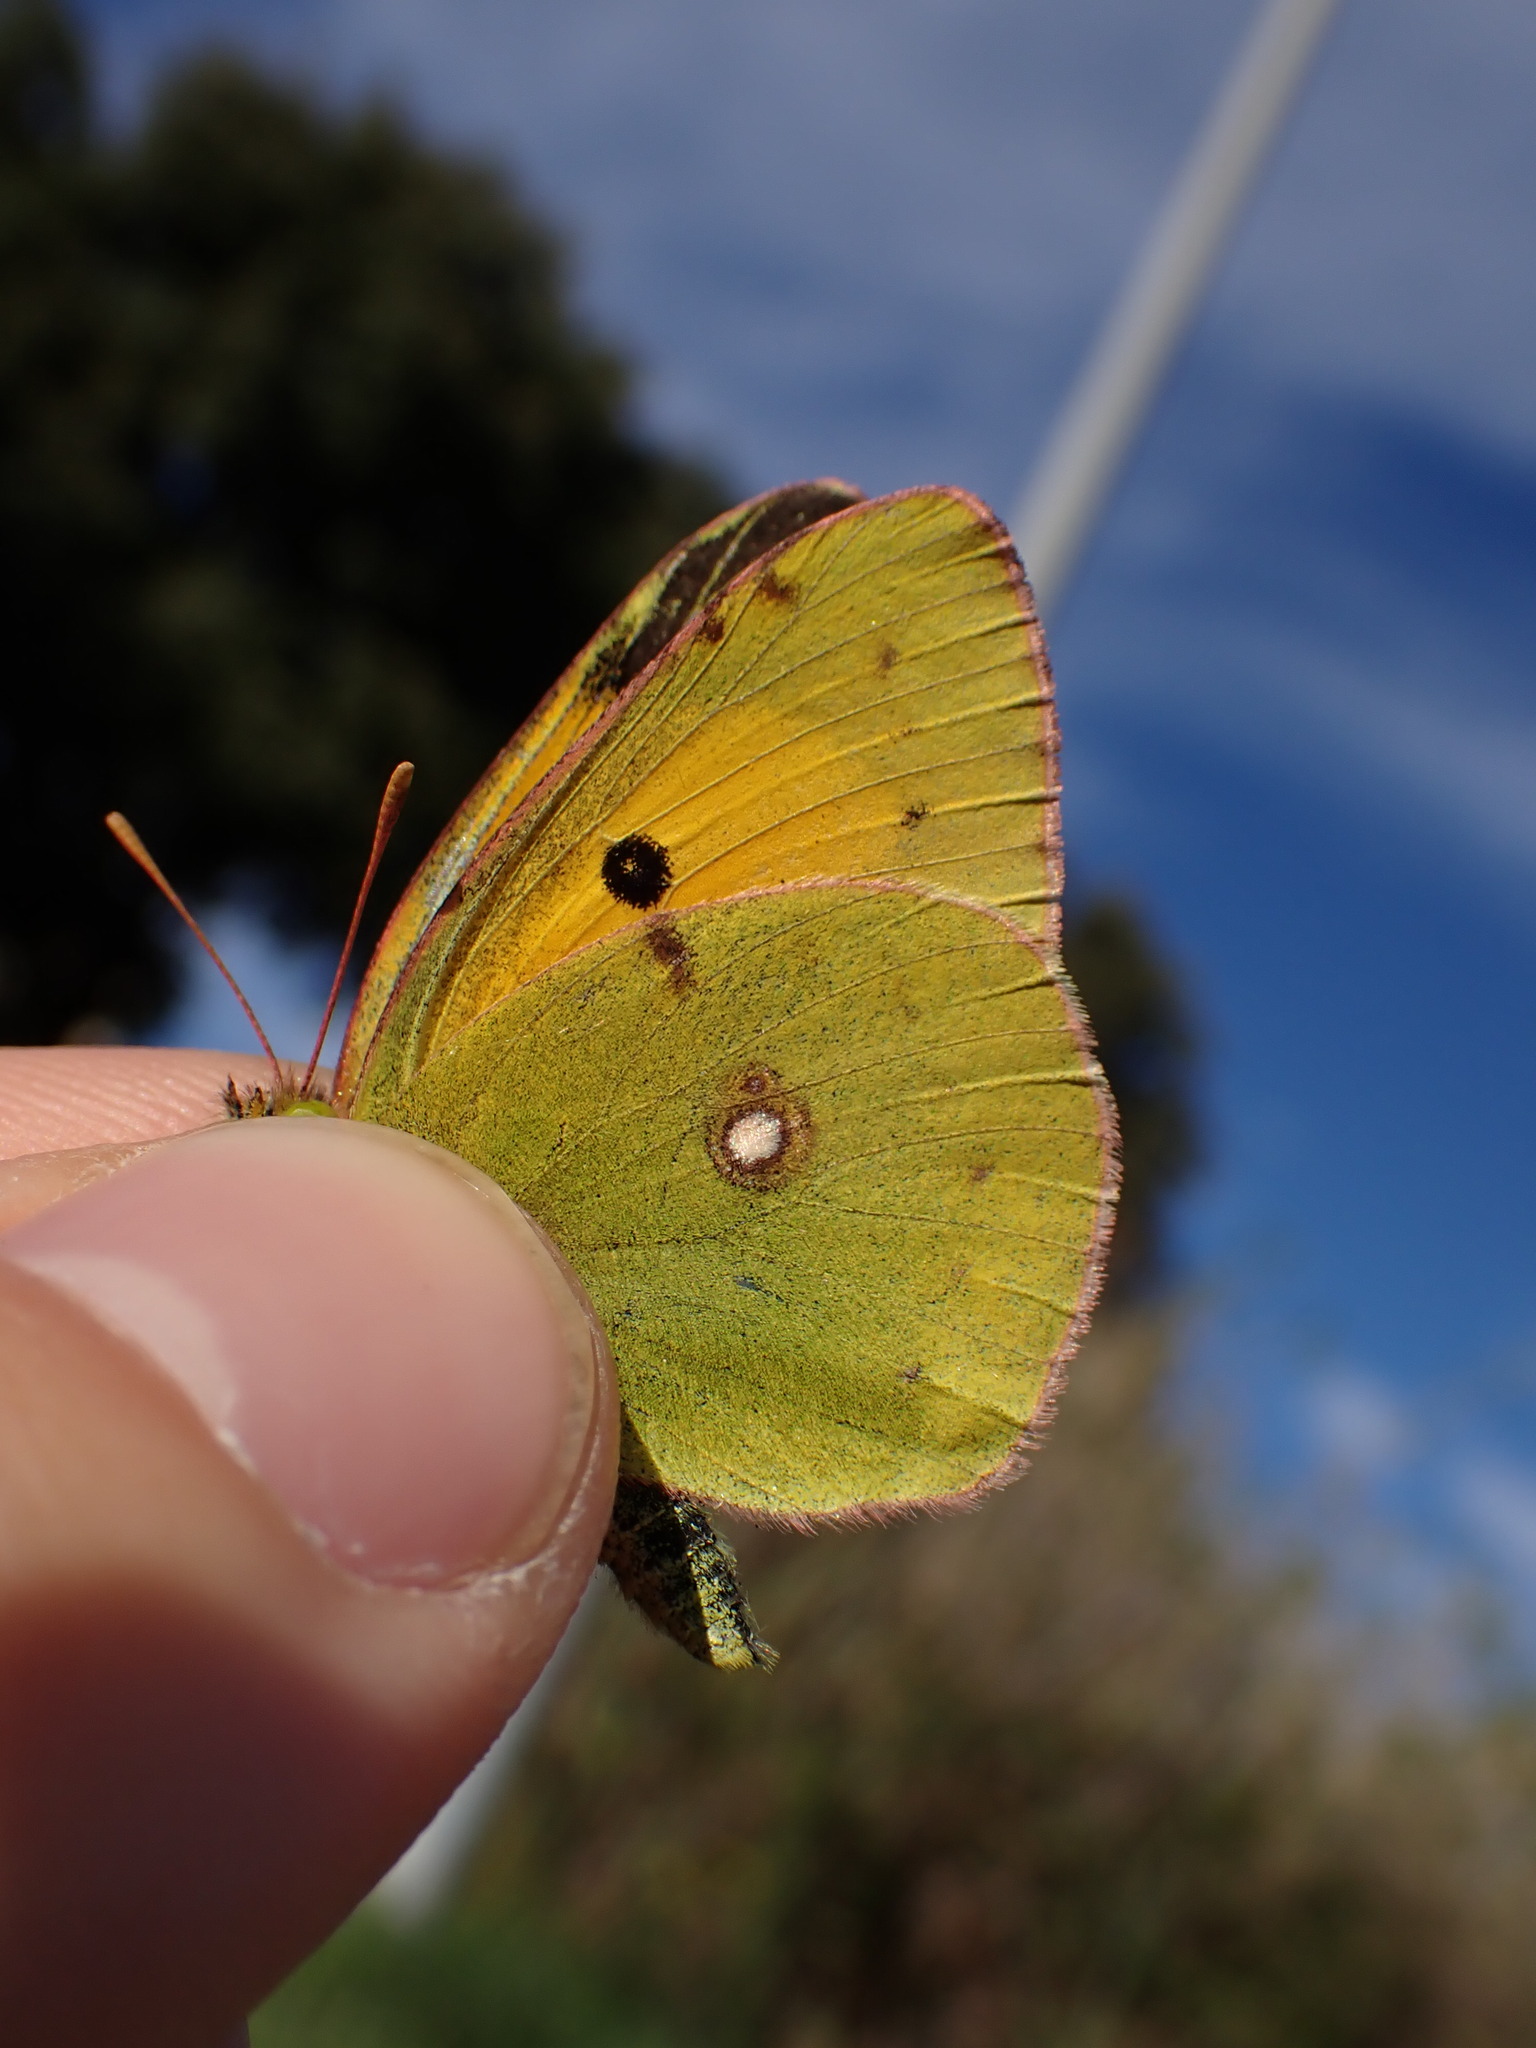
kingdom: Animalia
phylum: Arthropoda
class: Insecta
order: Lepidoptera
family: Pieridae
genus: Colias
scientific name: Colias croceus
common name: Clouded yellow
